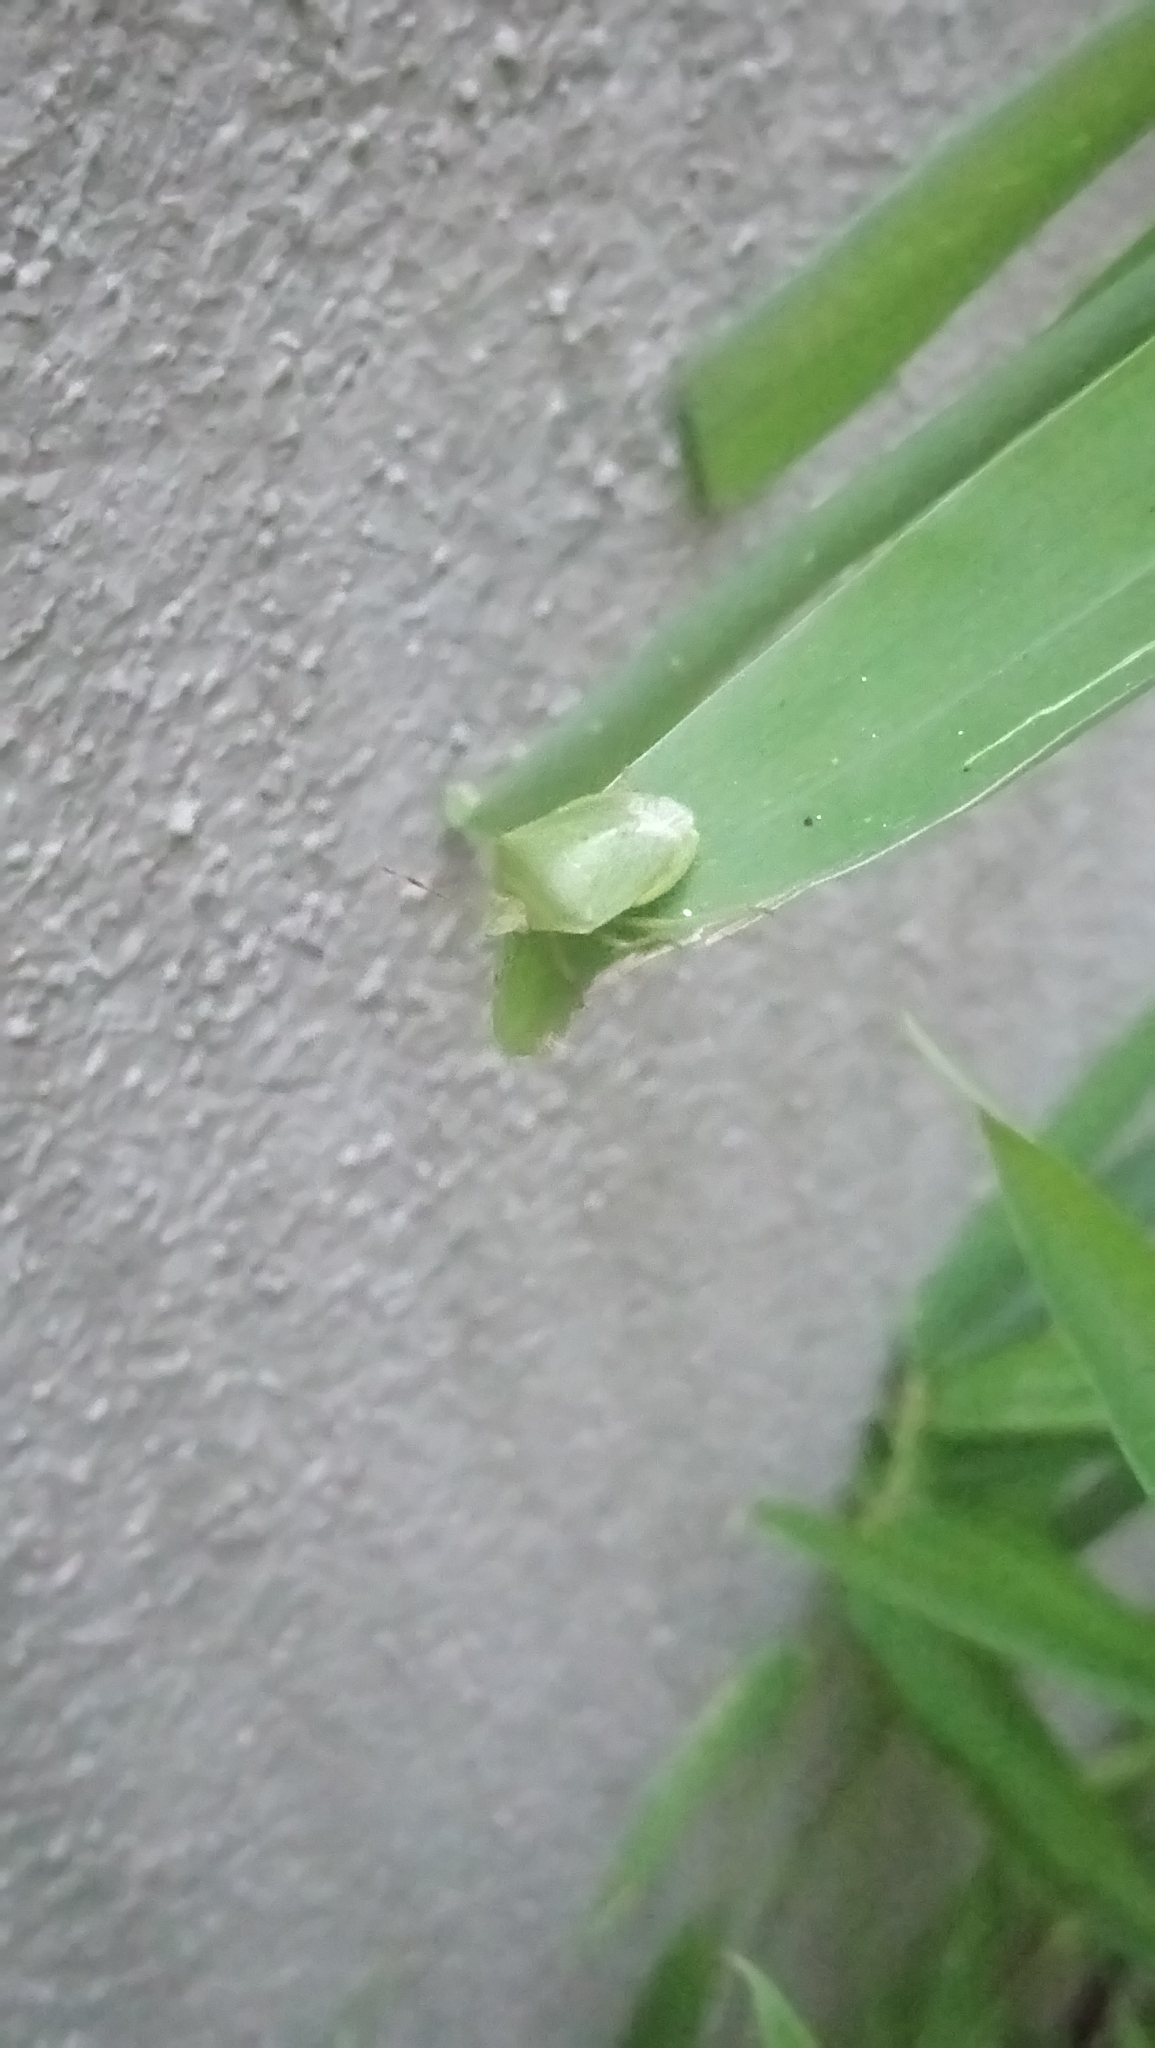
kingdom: Animalia
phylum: Arthropoda
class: Insecta
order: Hemiptera
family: Pentatomidae
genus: Nezara
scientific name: Nezara viridula
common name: Southern green stink bug
